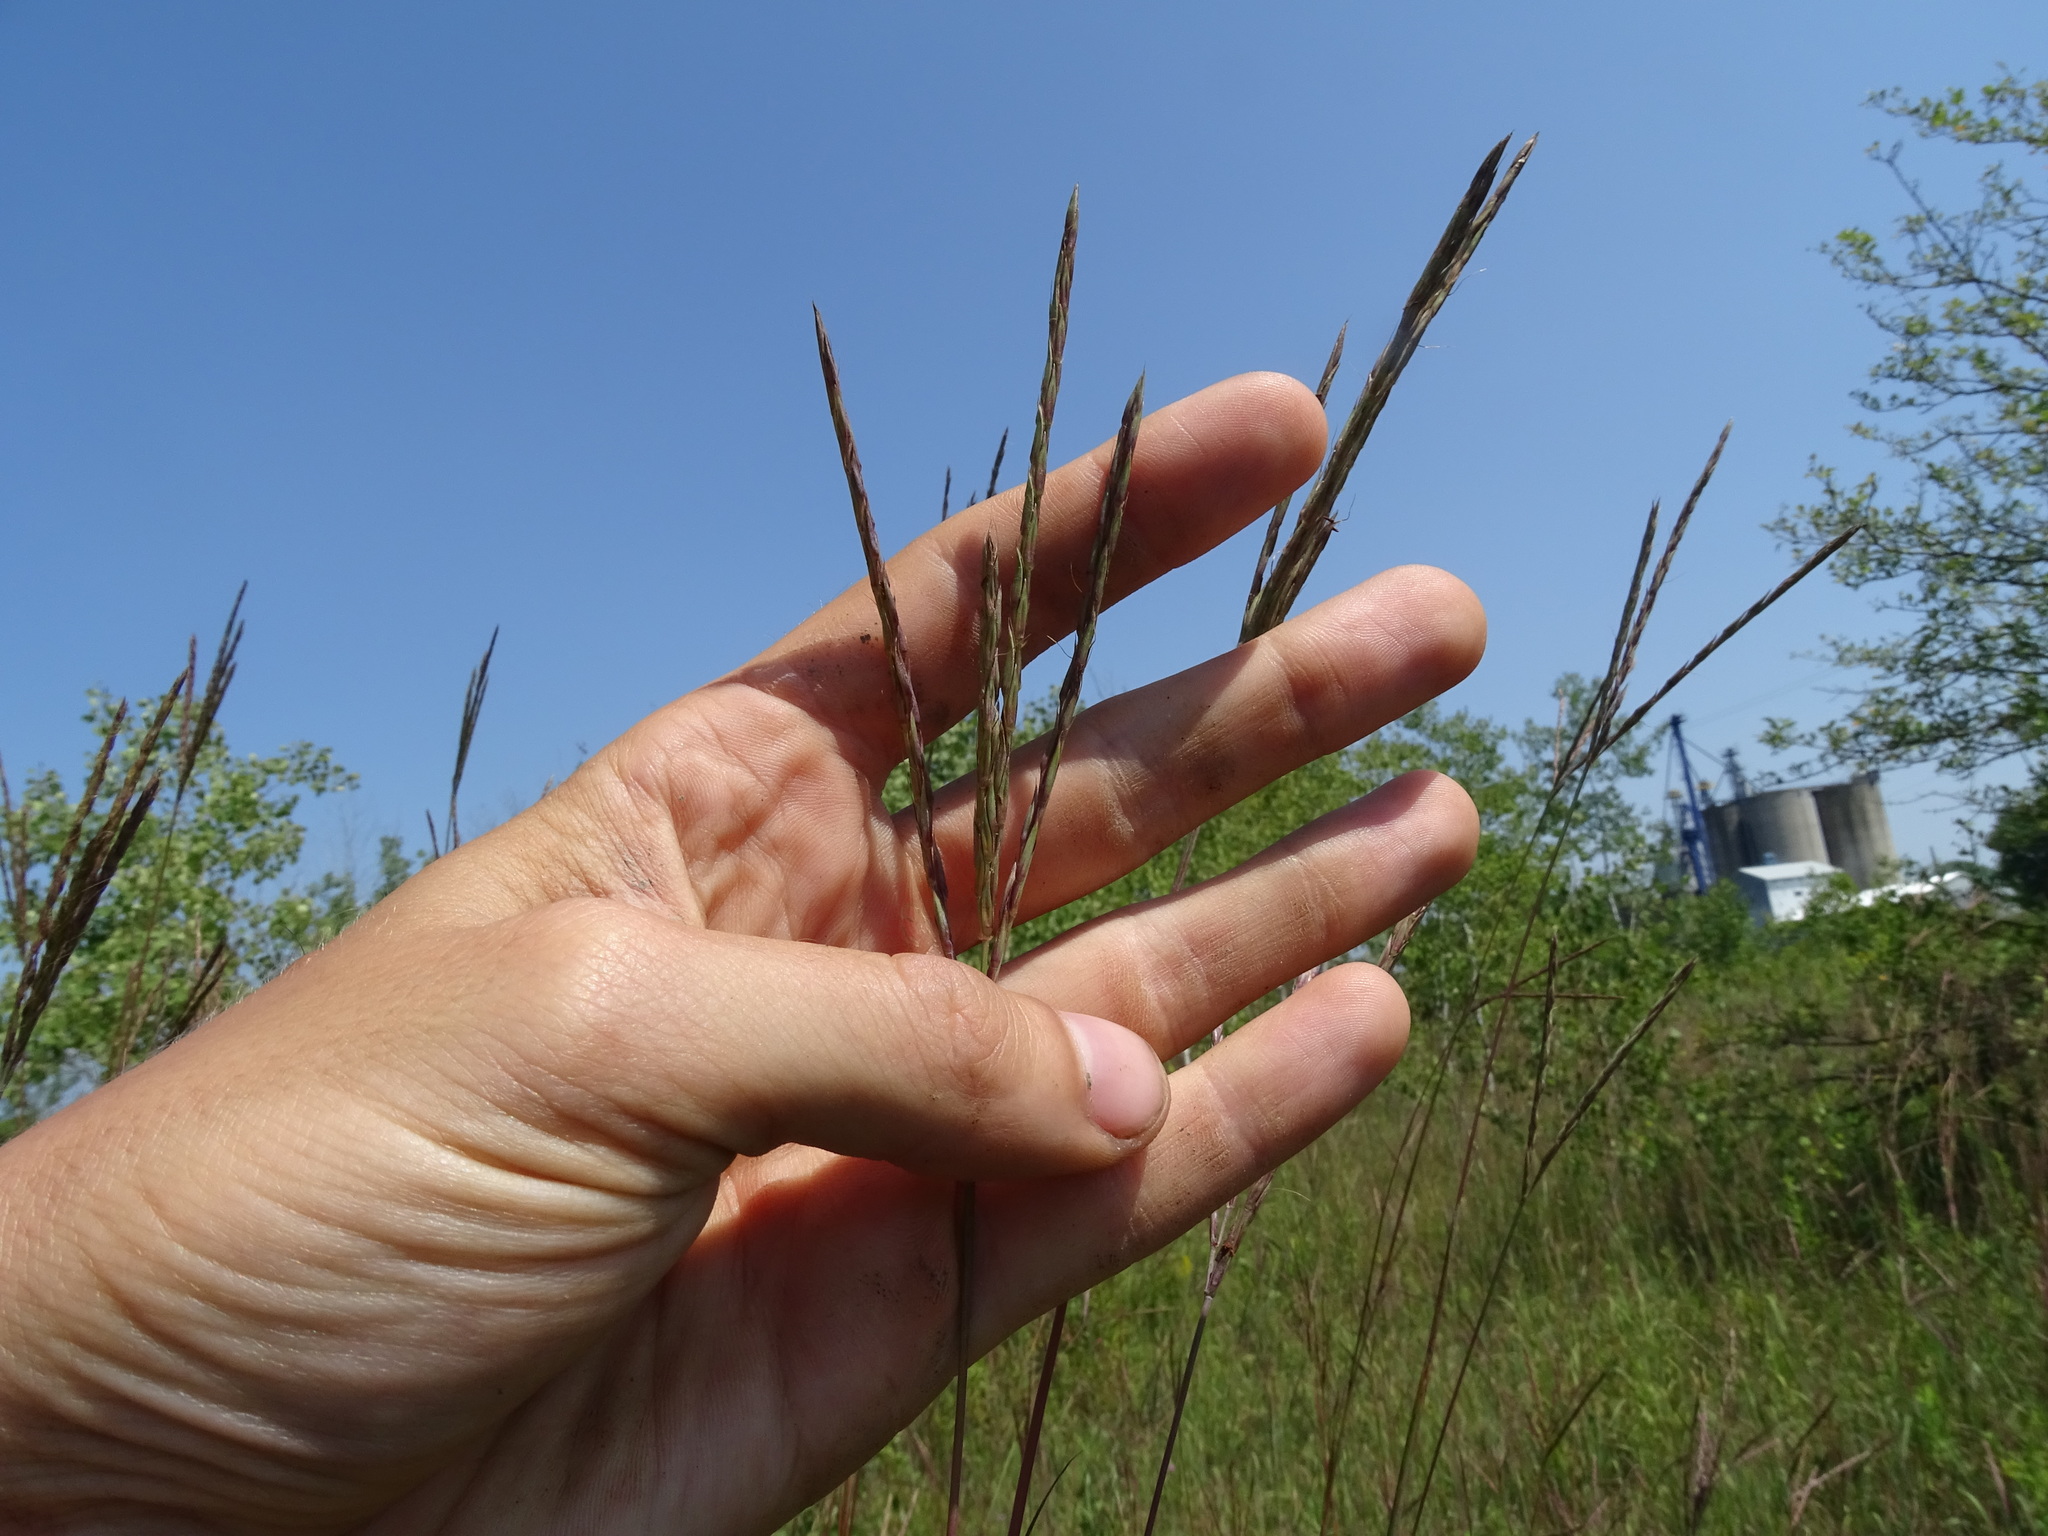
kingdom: Plantae
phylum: Tracheophyta
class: Liliopsida
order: Poales
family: Poaceae
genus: Andropogon
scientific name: Andropogon gerardi
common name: Big bluestem
